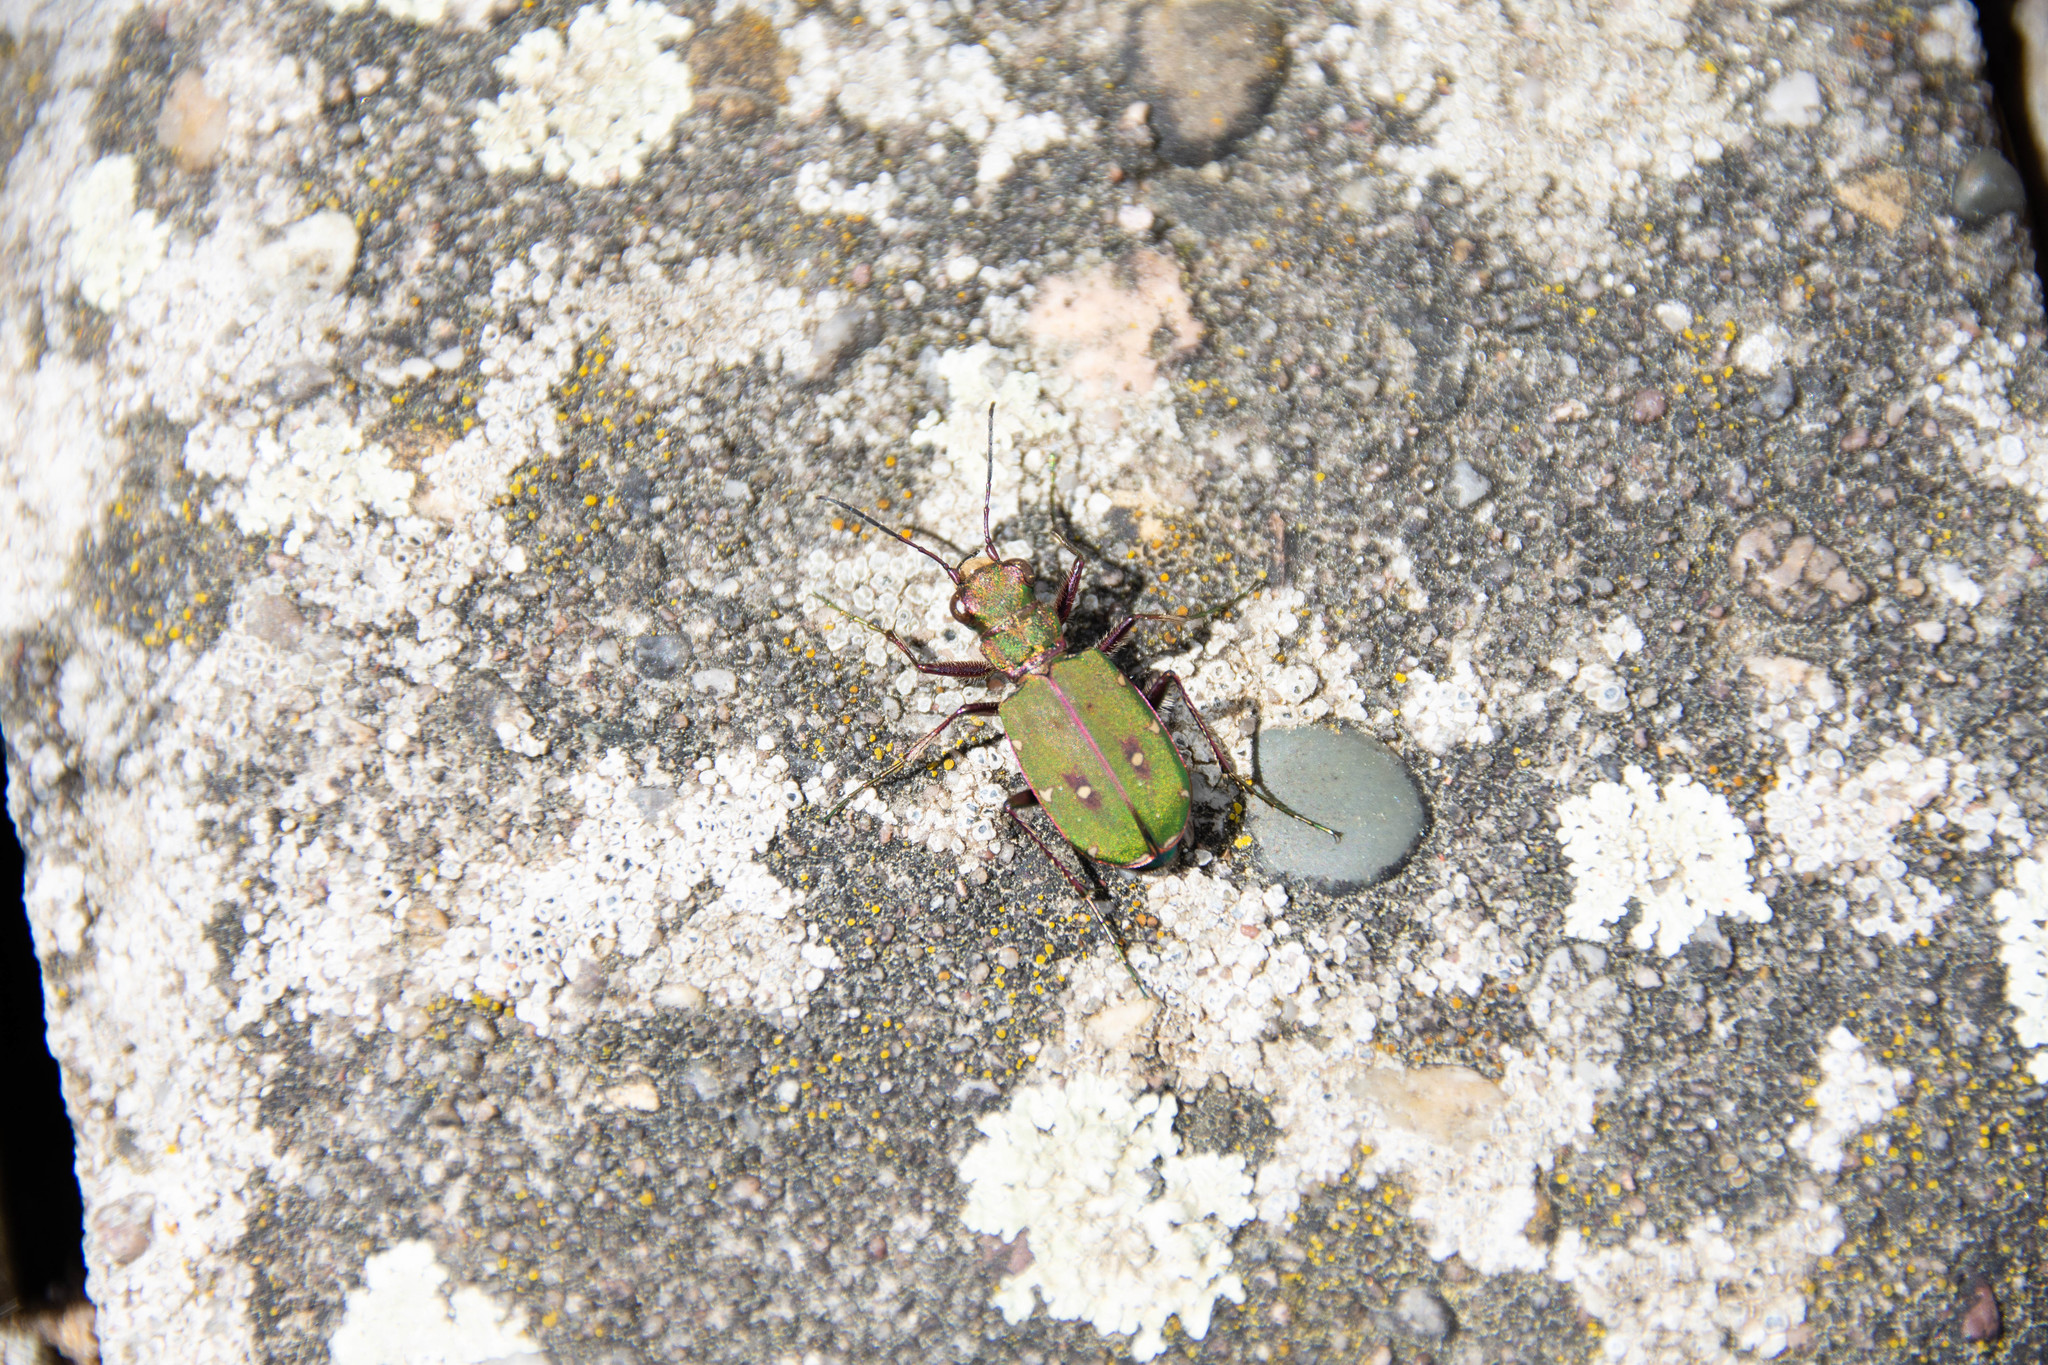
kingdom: Animalia
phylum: Arthropoda
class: Insecta
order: Coleoptera
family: Carabidae
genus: Cicindela
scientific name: Cicindela campestris
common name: Common tiger beetle
